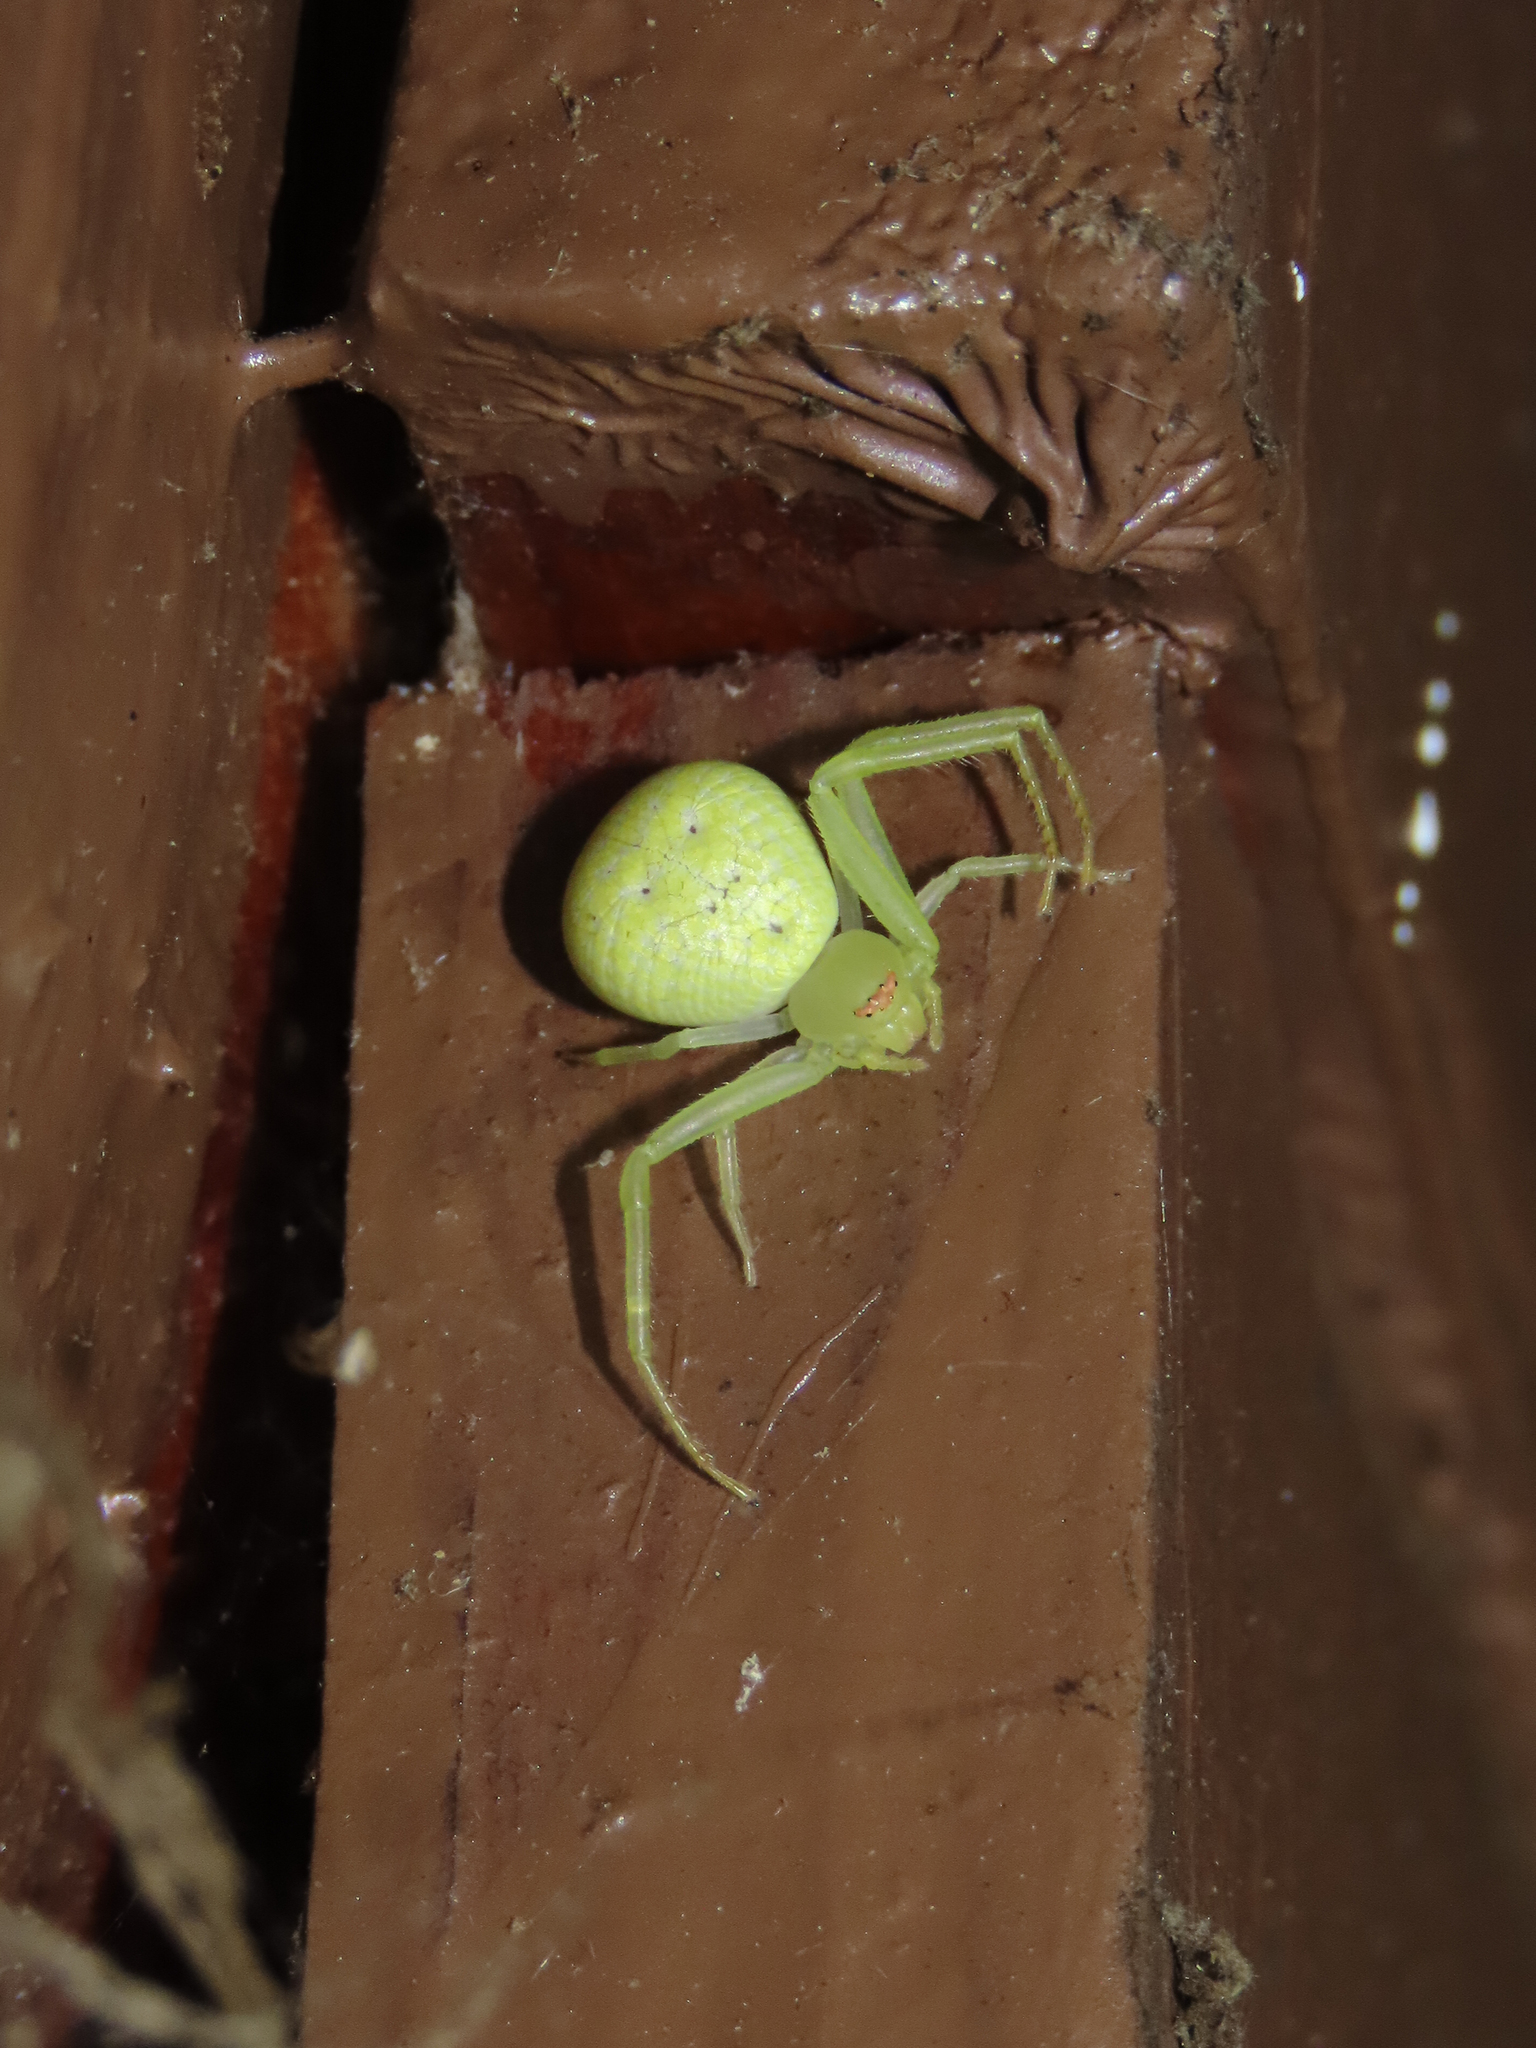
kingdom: Animalia
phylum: Arthropoda
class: Arachnida
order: Araneae
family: Thomisidae
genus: Misumessus
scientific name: Misumessus oblongus
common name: American green crab spider
